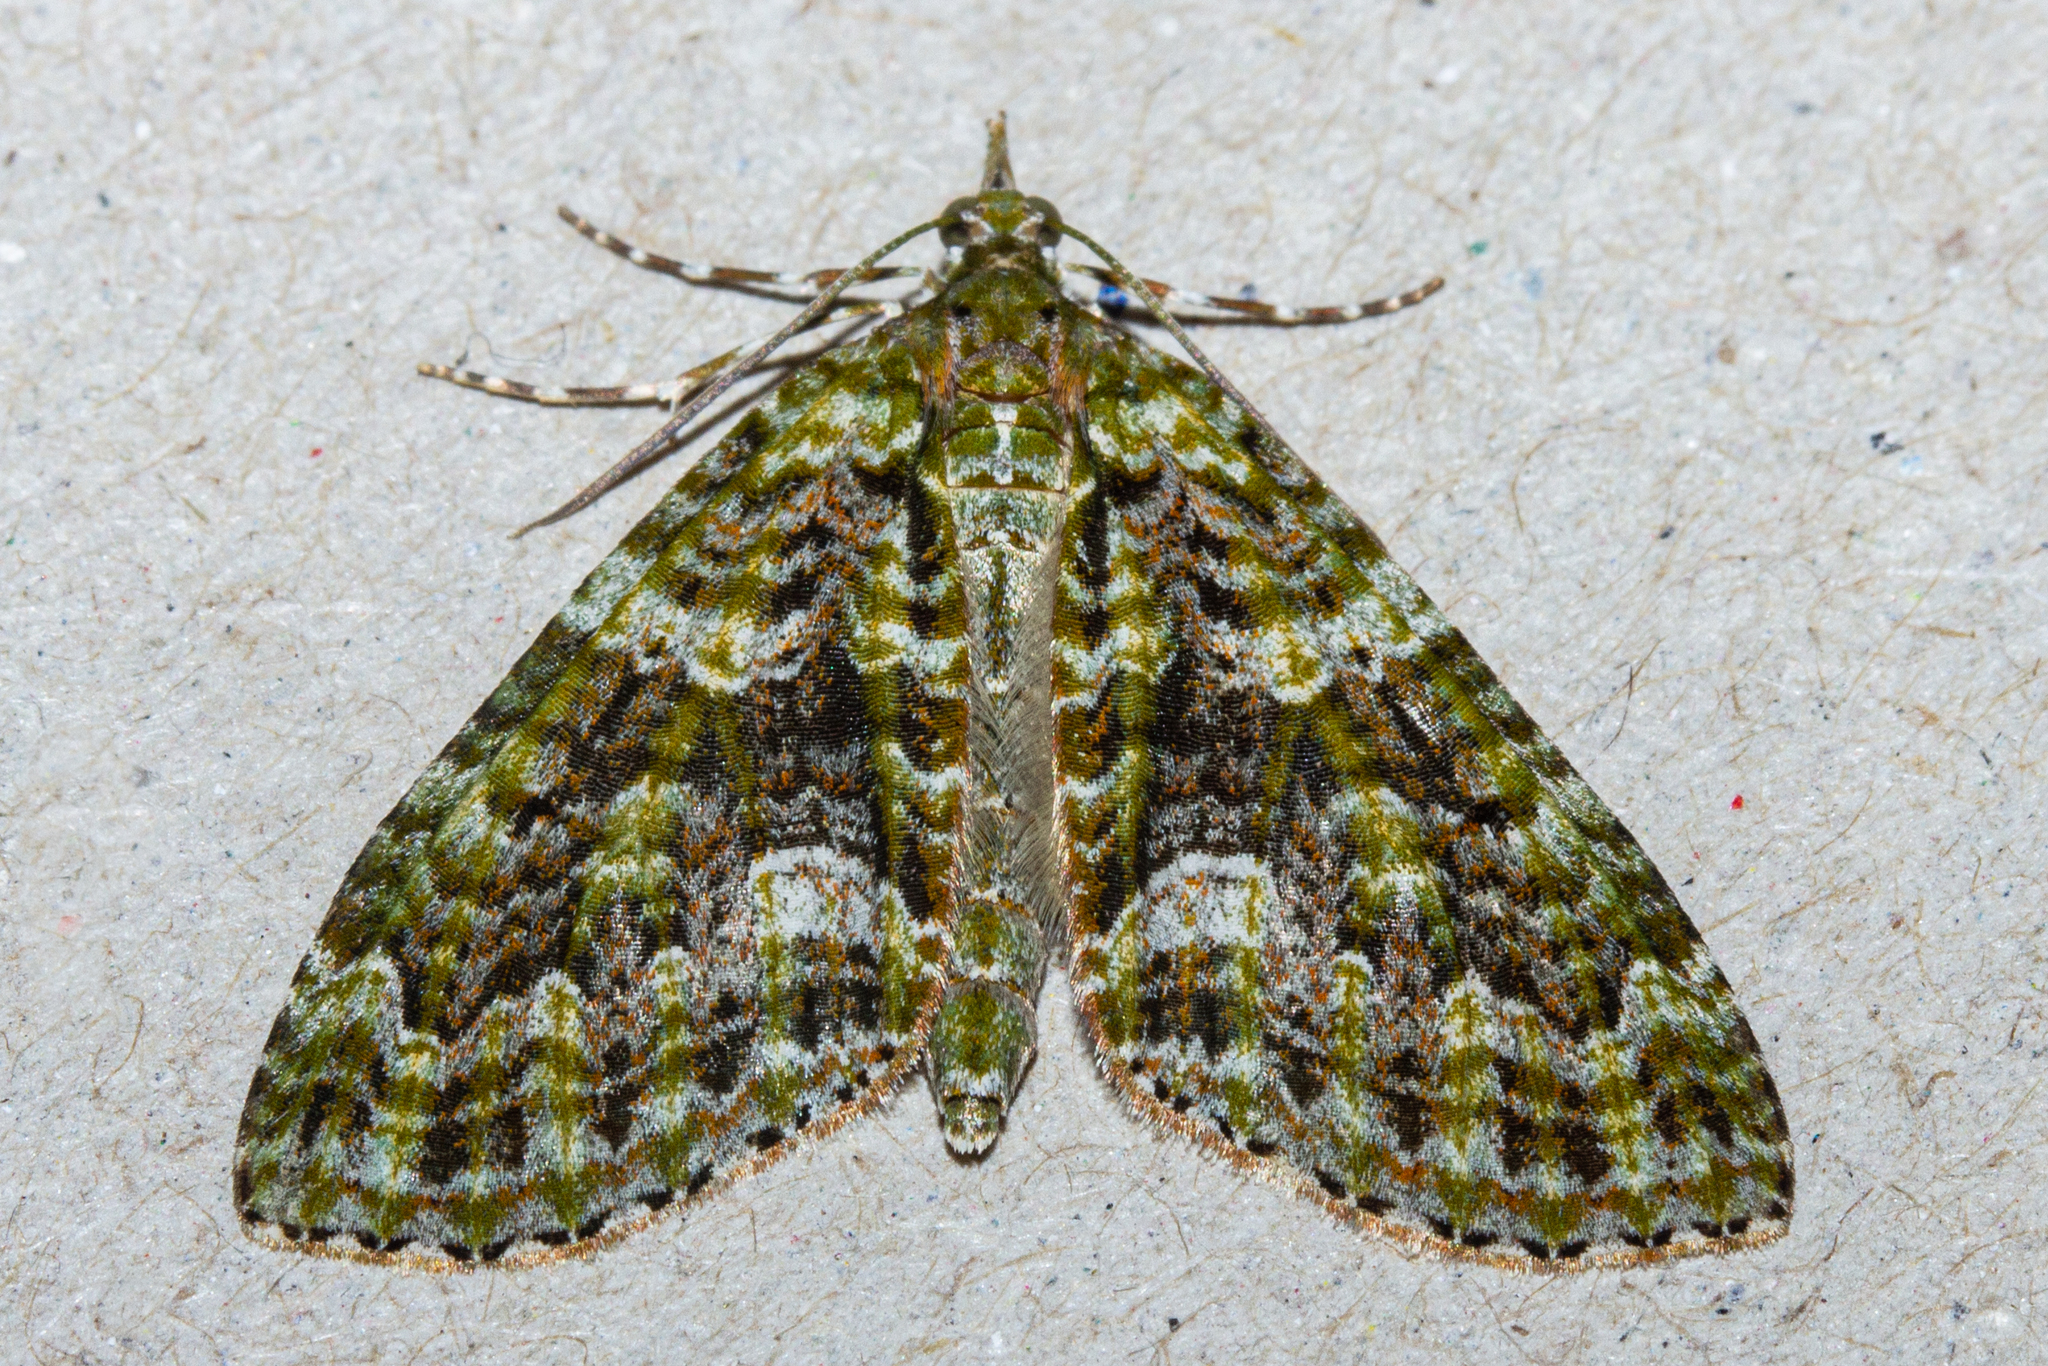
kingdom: Animalia
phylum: Arthropoda
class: Insecta
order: Lepidoptera
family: Geometridae
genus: Tatosoma
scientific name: Tatosoma agrionata
